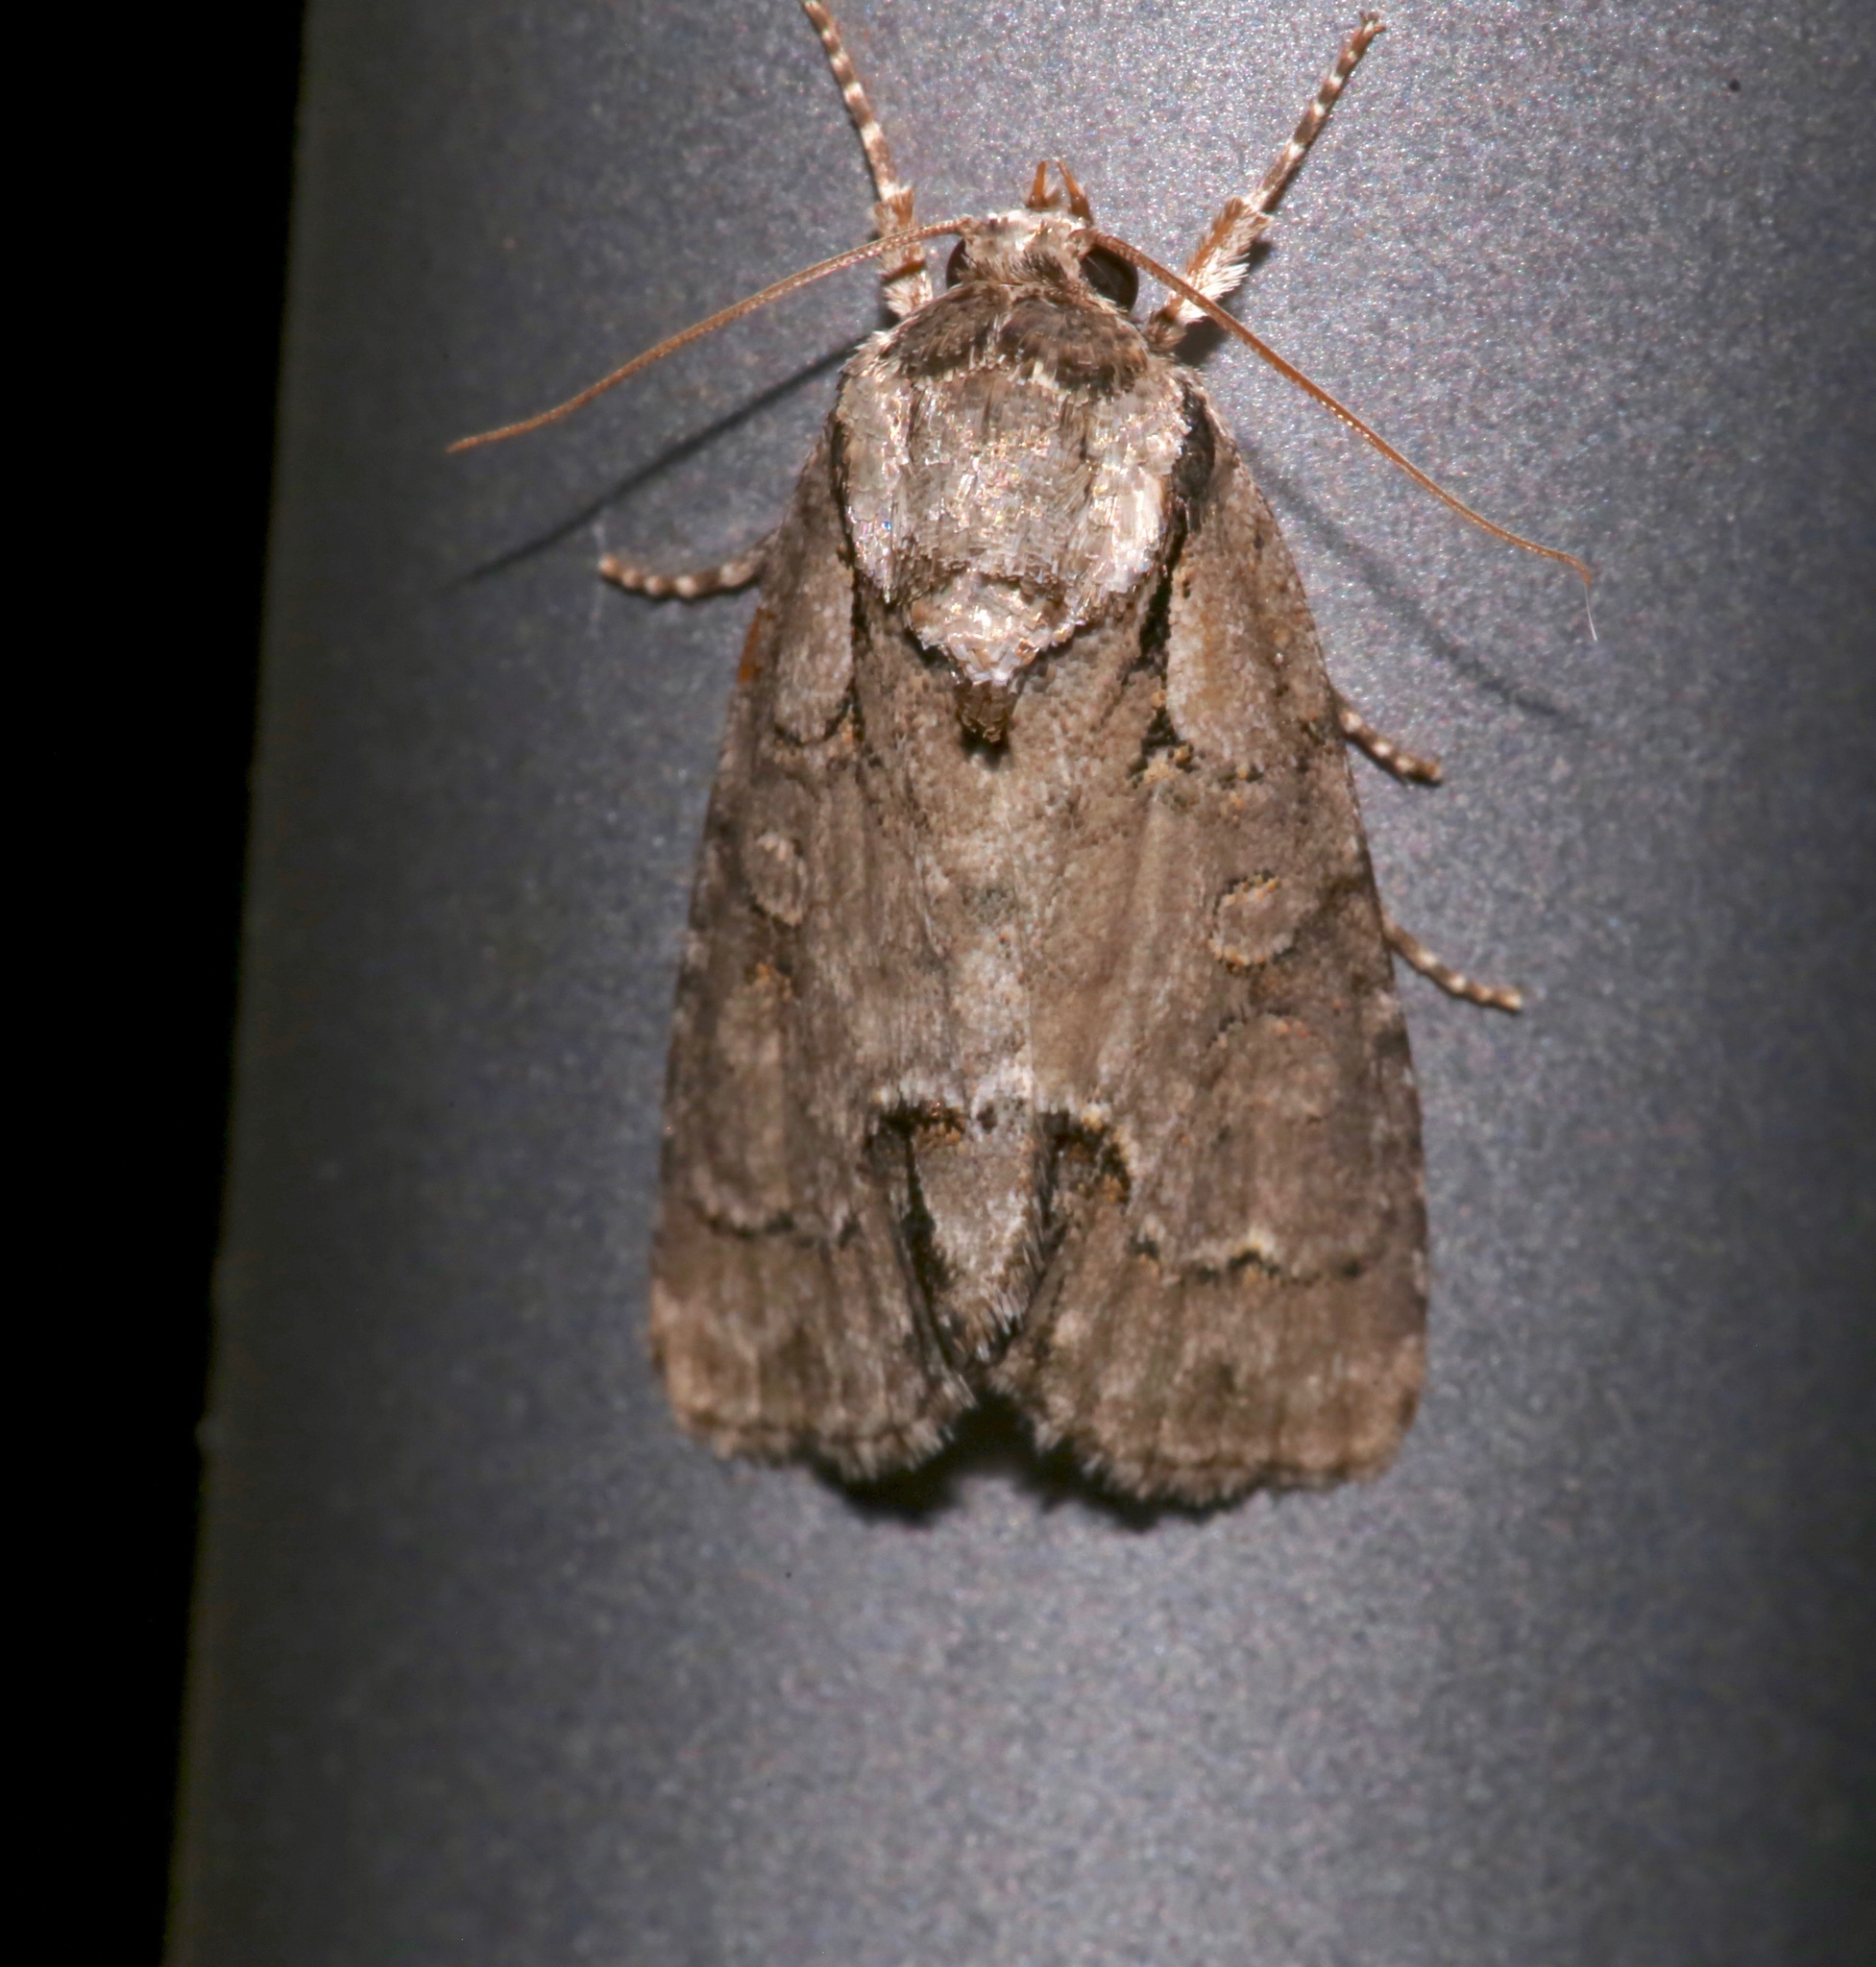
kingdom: Animalia
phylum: Arthropoda
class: Insecta
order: Lepidoptera
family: Noctuidae
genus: Acronicta
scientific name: Acronicta parallela
